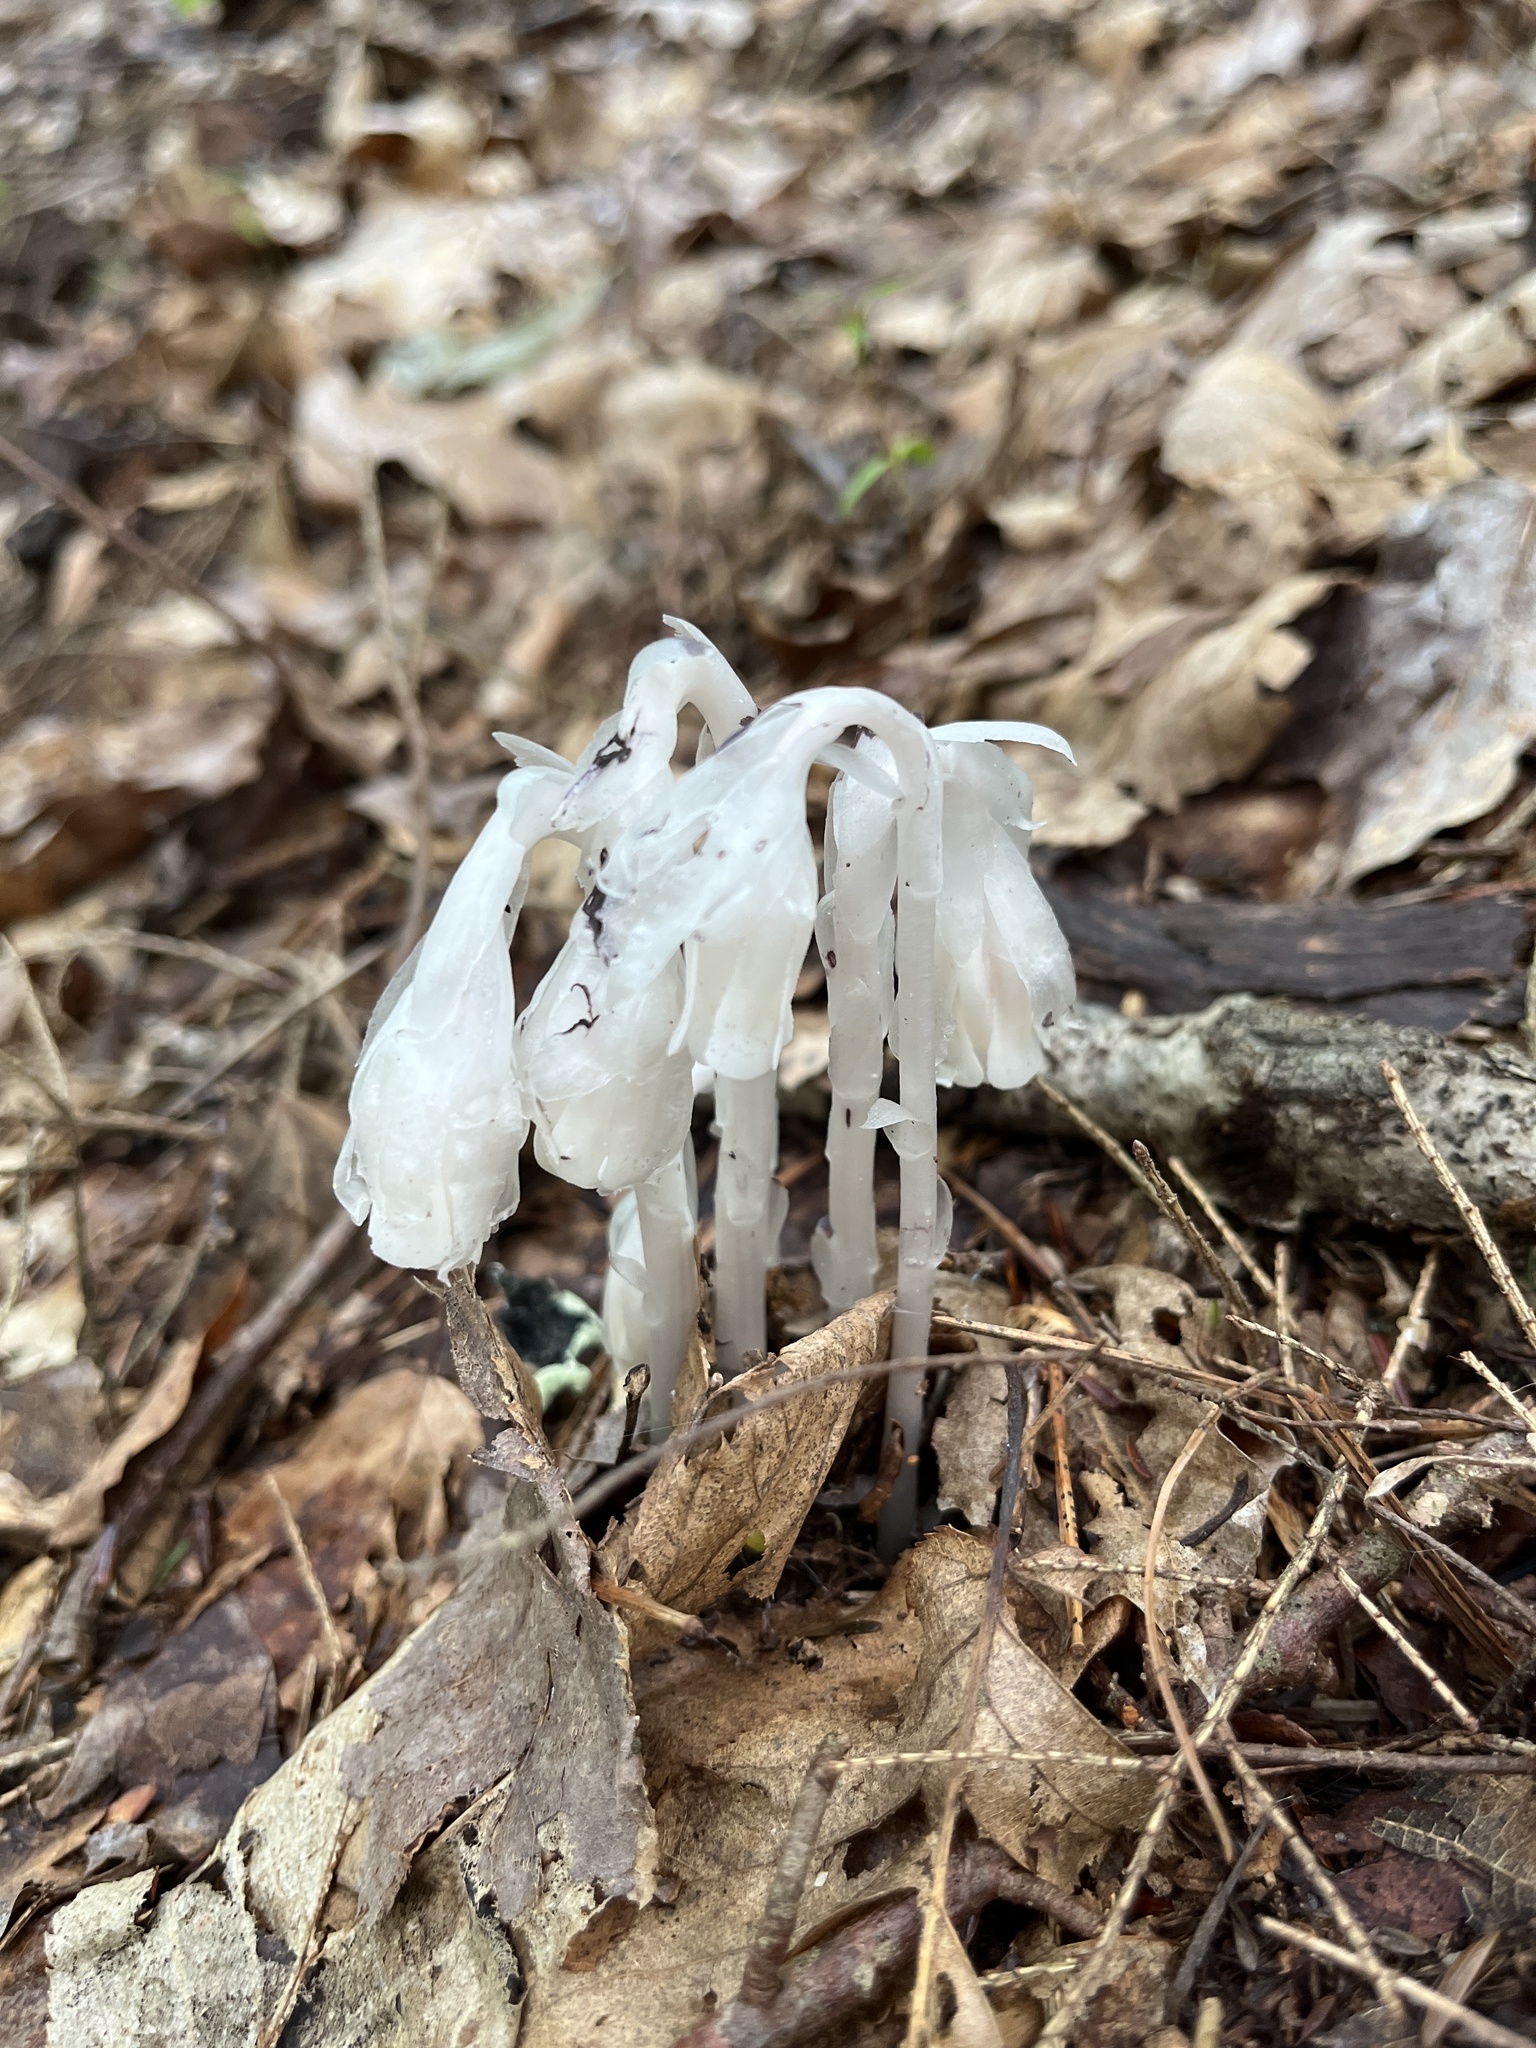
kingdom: Plantae
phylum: Tracheophyta
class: Magnoliopsida
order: Ericales
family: Ericaceae
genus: Monotropa
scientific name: Monotropa uniflora
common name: Convulsion root
